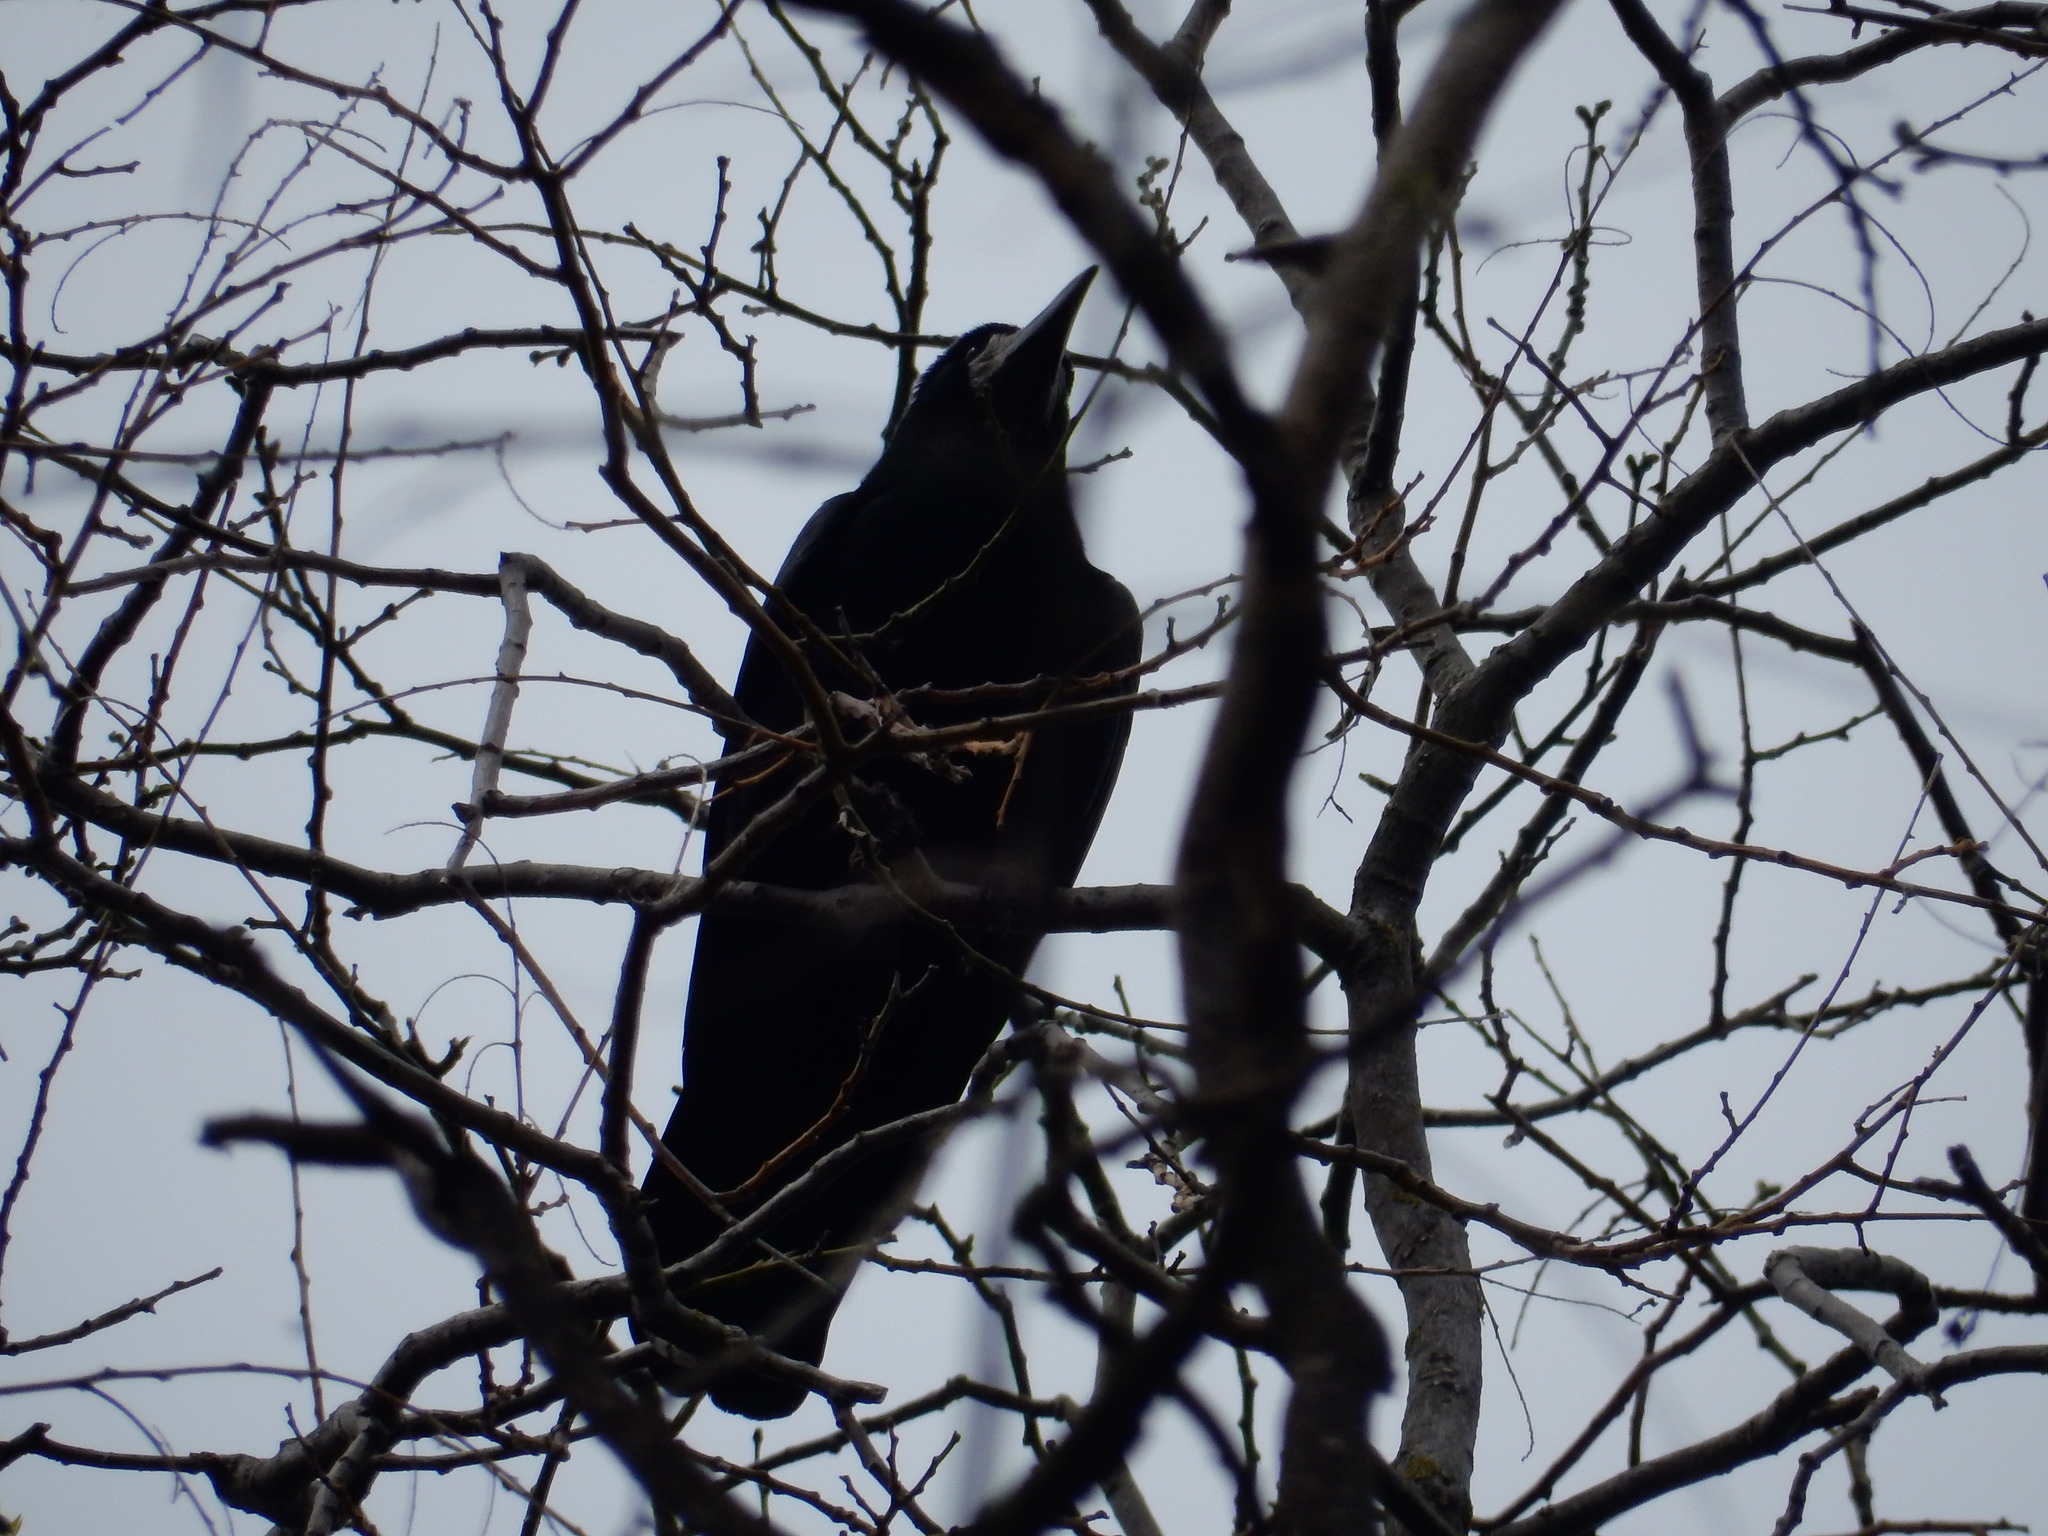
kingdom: Animalia
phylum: Chordata
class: Aves
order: Passeriformes
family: Corvidae
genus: Corvus
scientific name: Corvus frugilegus
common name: Rook
